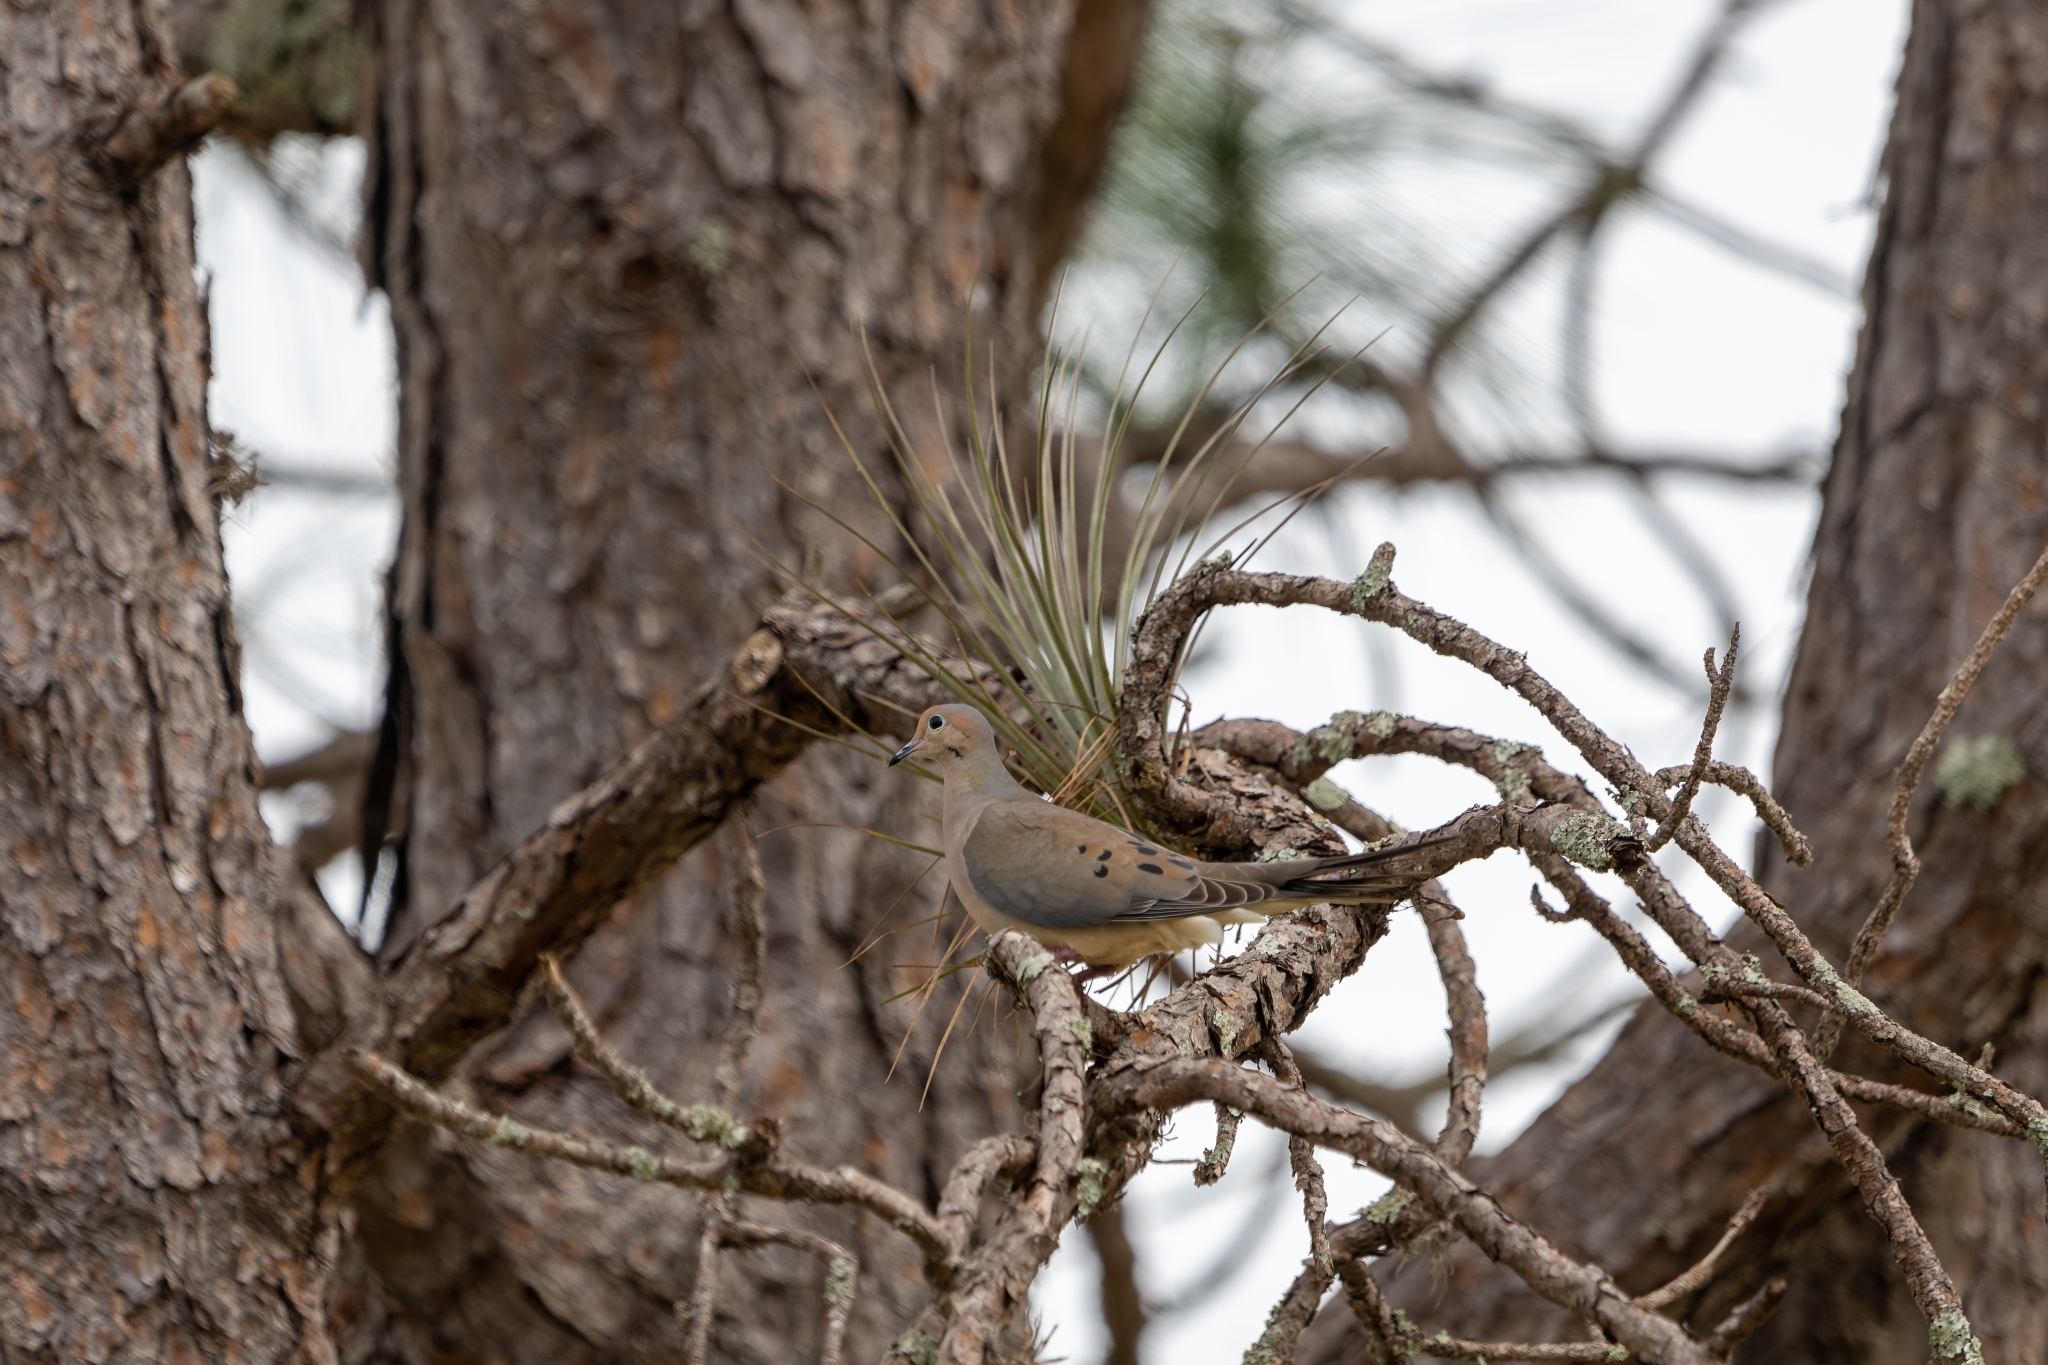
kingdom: Animalia
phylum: Chordata
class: Aves
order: Columbiformes
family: Columbidae
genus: Zenaida
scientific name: Zenaida macroura
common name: Mourning dove
